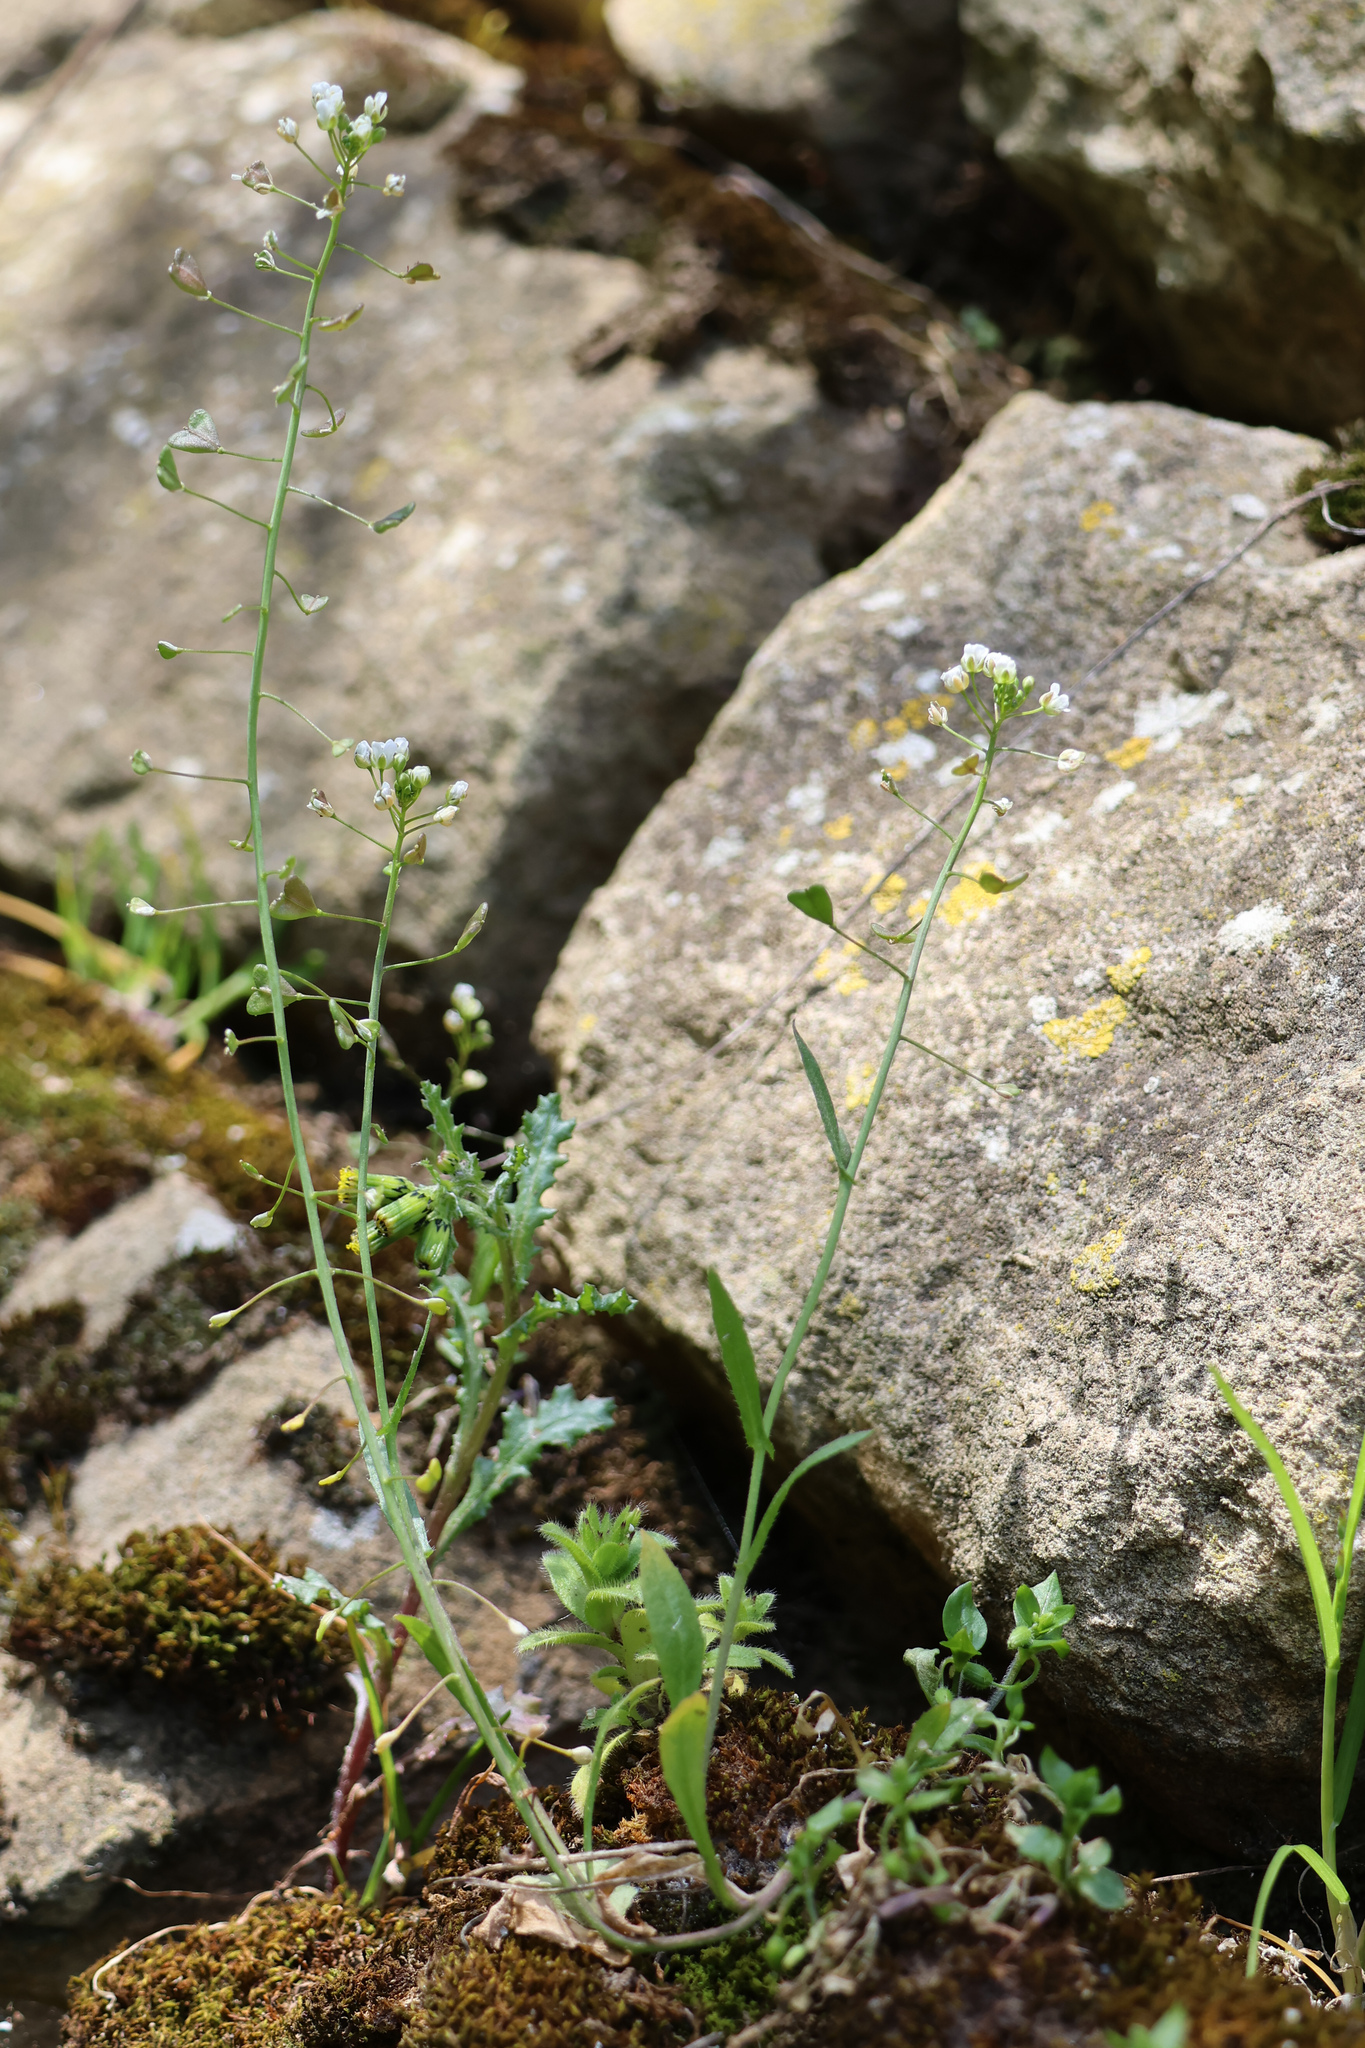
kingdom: Plantae
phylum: Tracheophyta
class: Magnoliopsida
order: Brassicales
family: Brassicaceae
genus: Capsella
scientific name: Capsella bursa-pastoris
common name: Shepherd's purse
